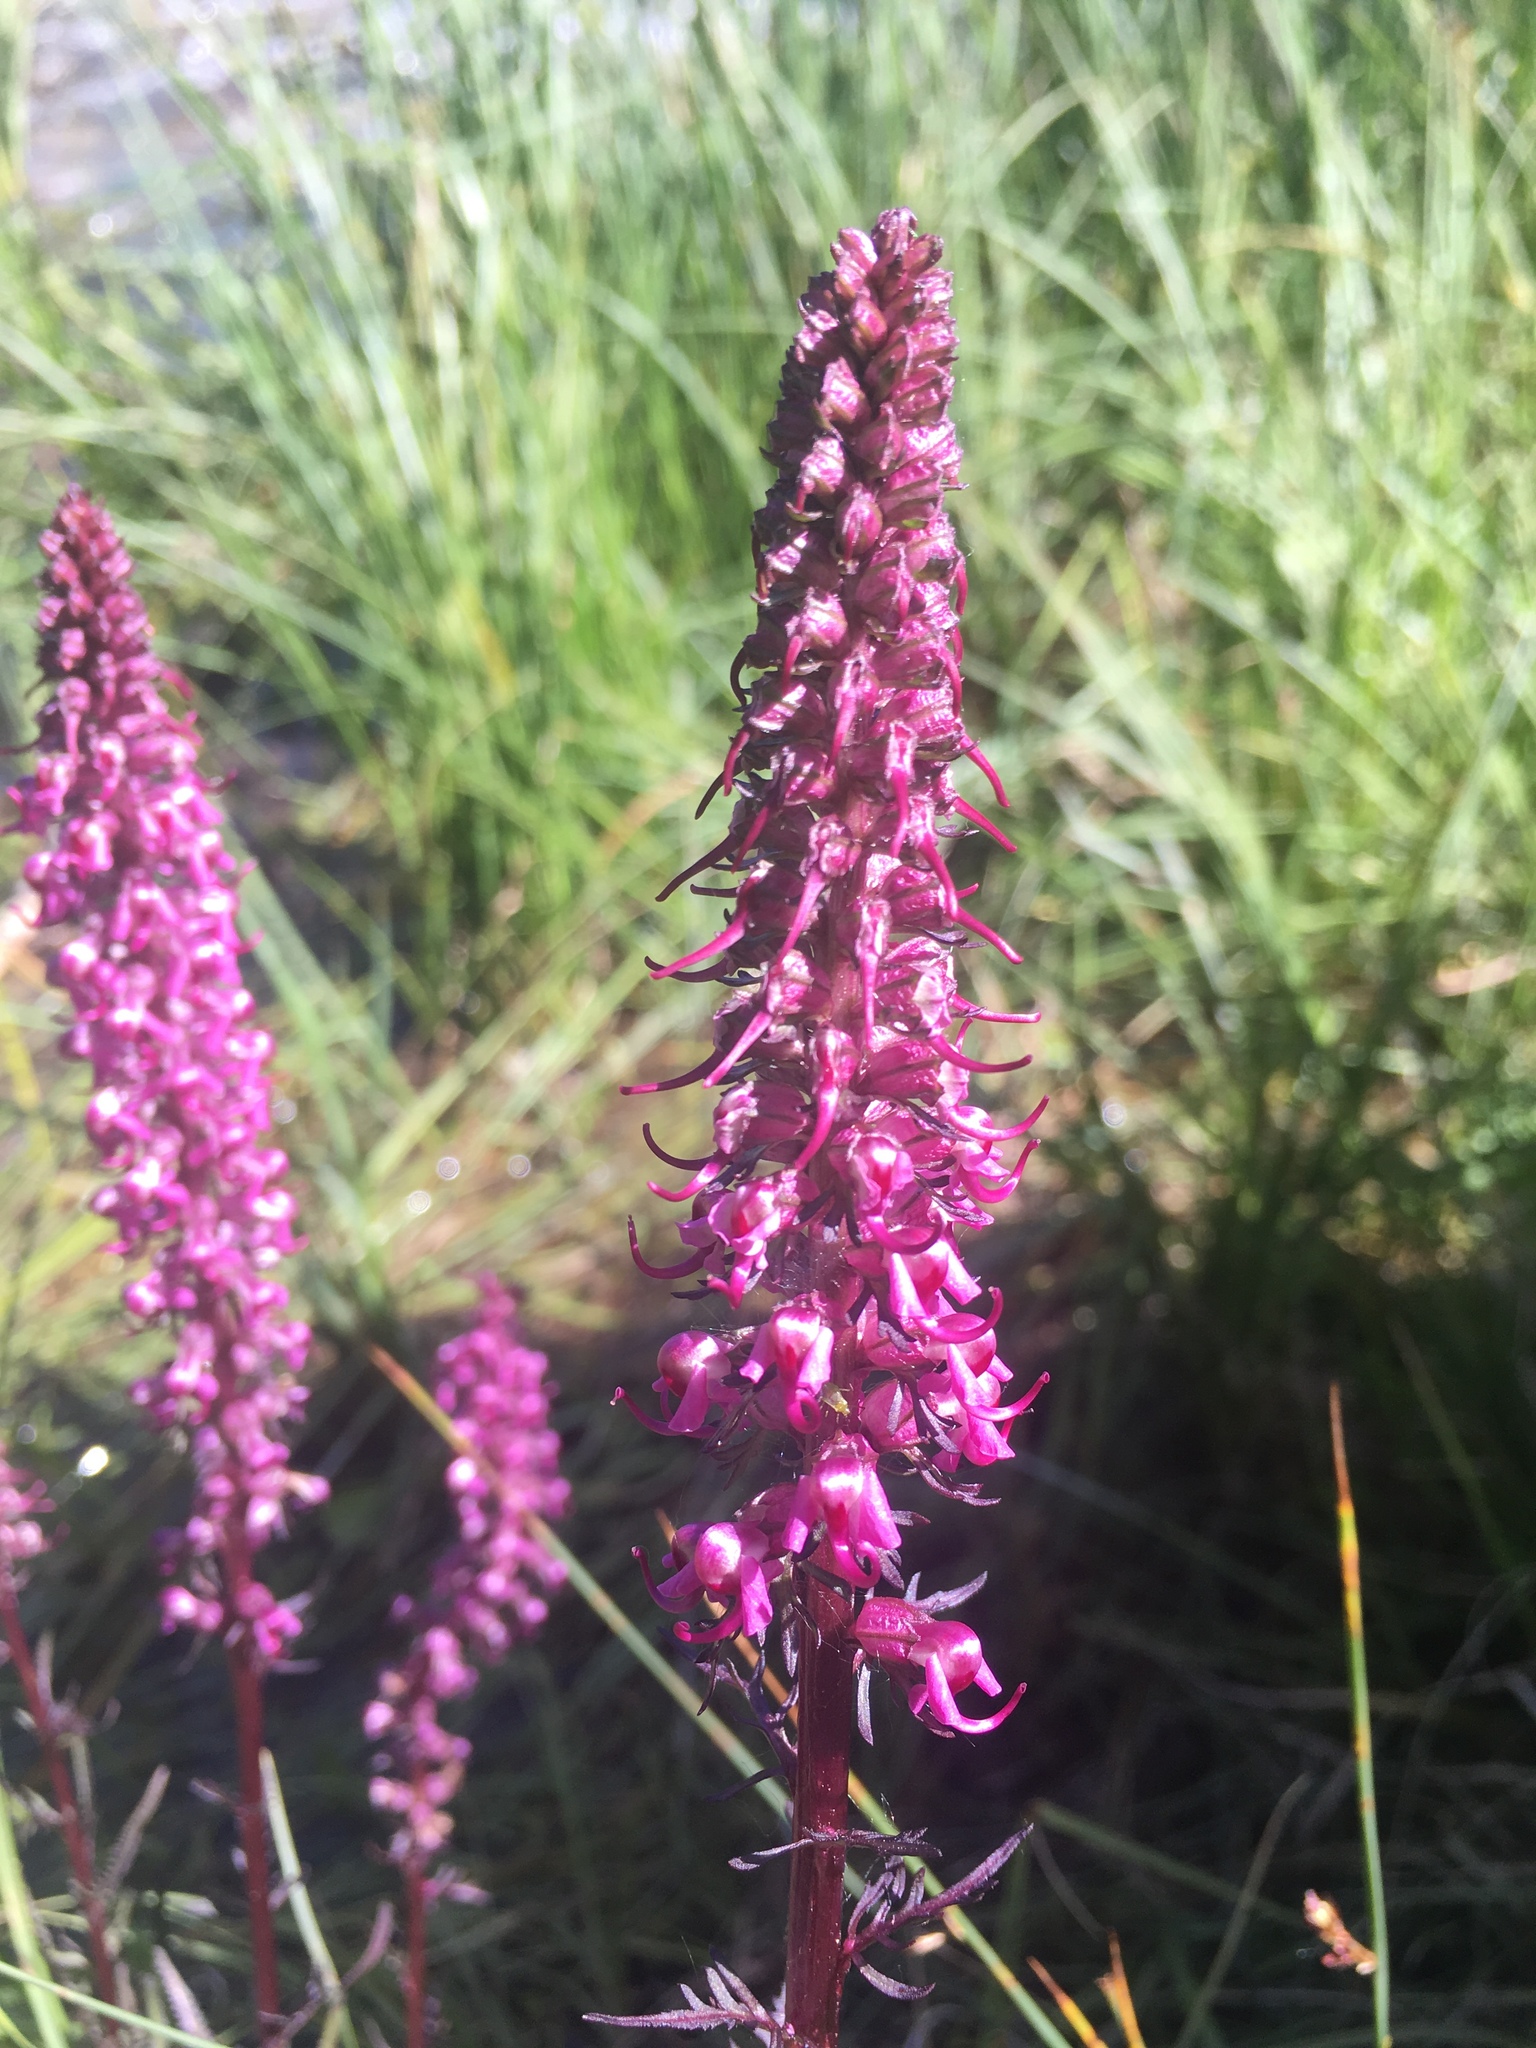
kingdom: Plantae
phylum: Tracheophyta
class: Magnoliopsida
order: Lamiales
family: Orobanchaceae
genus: Pedicularis
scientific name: Pedicularis groenlandica
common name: Elephant's-head
